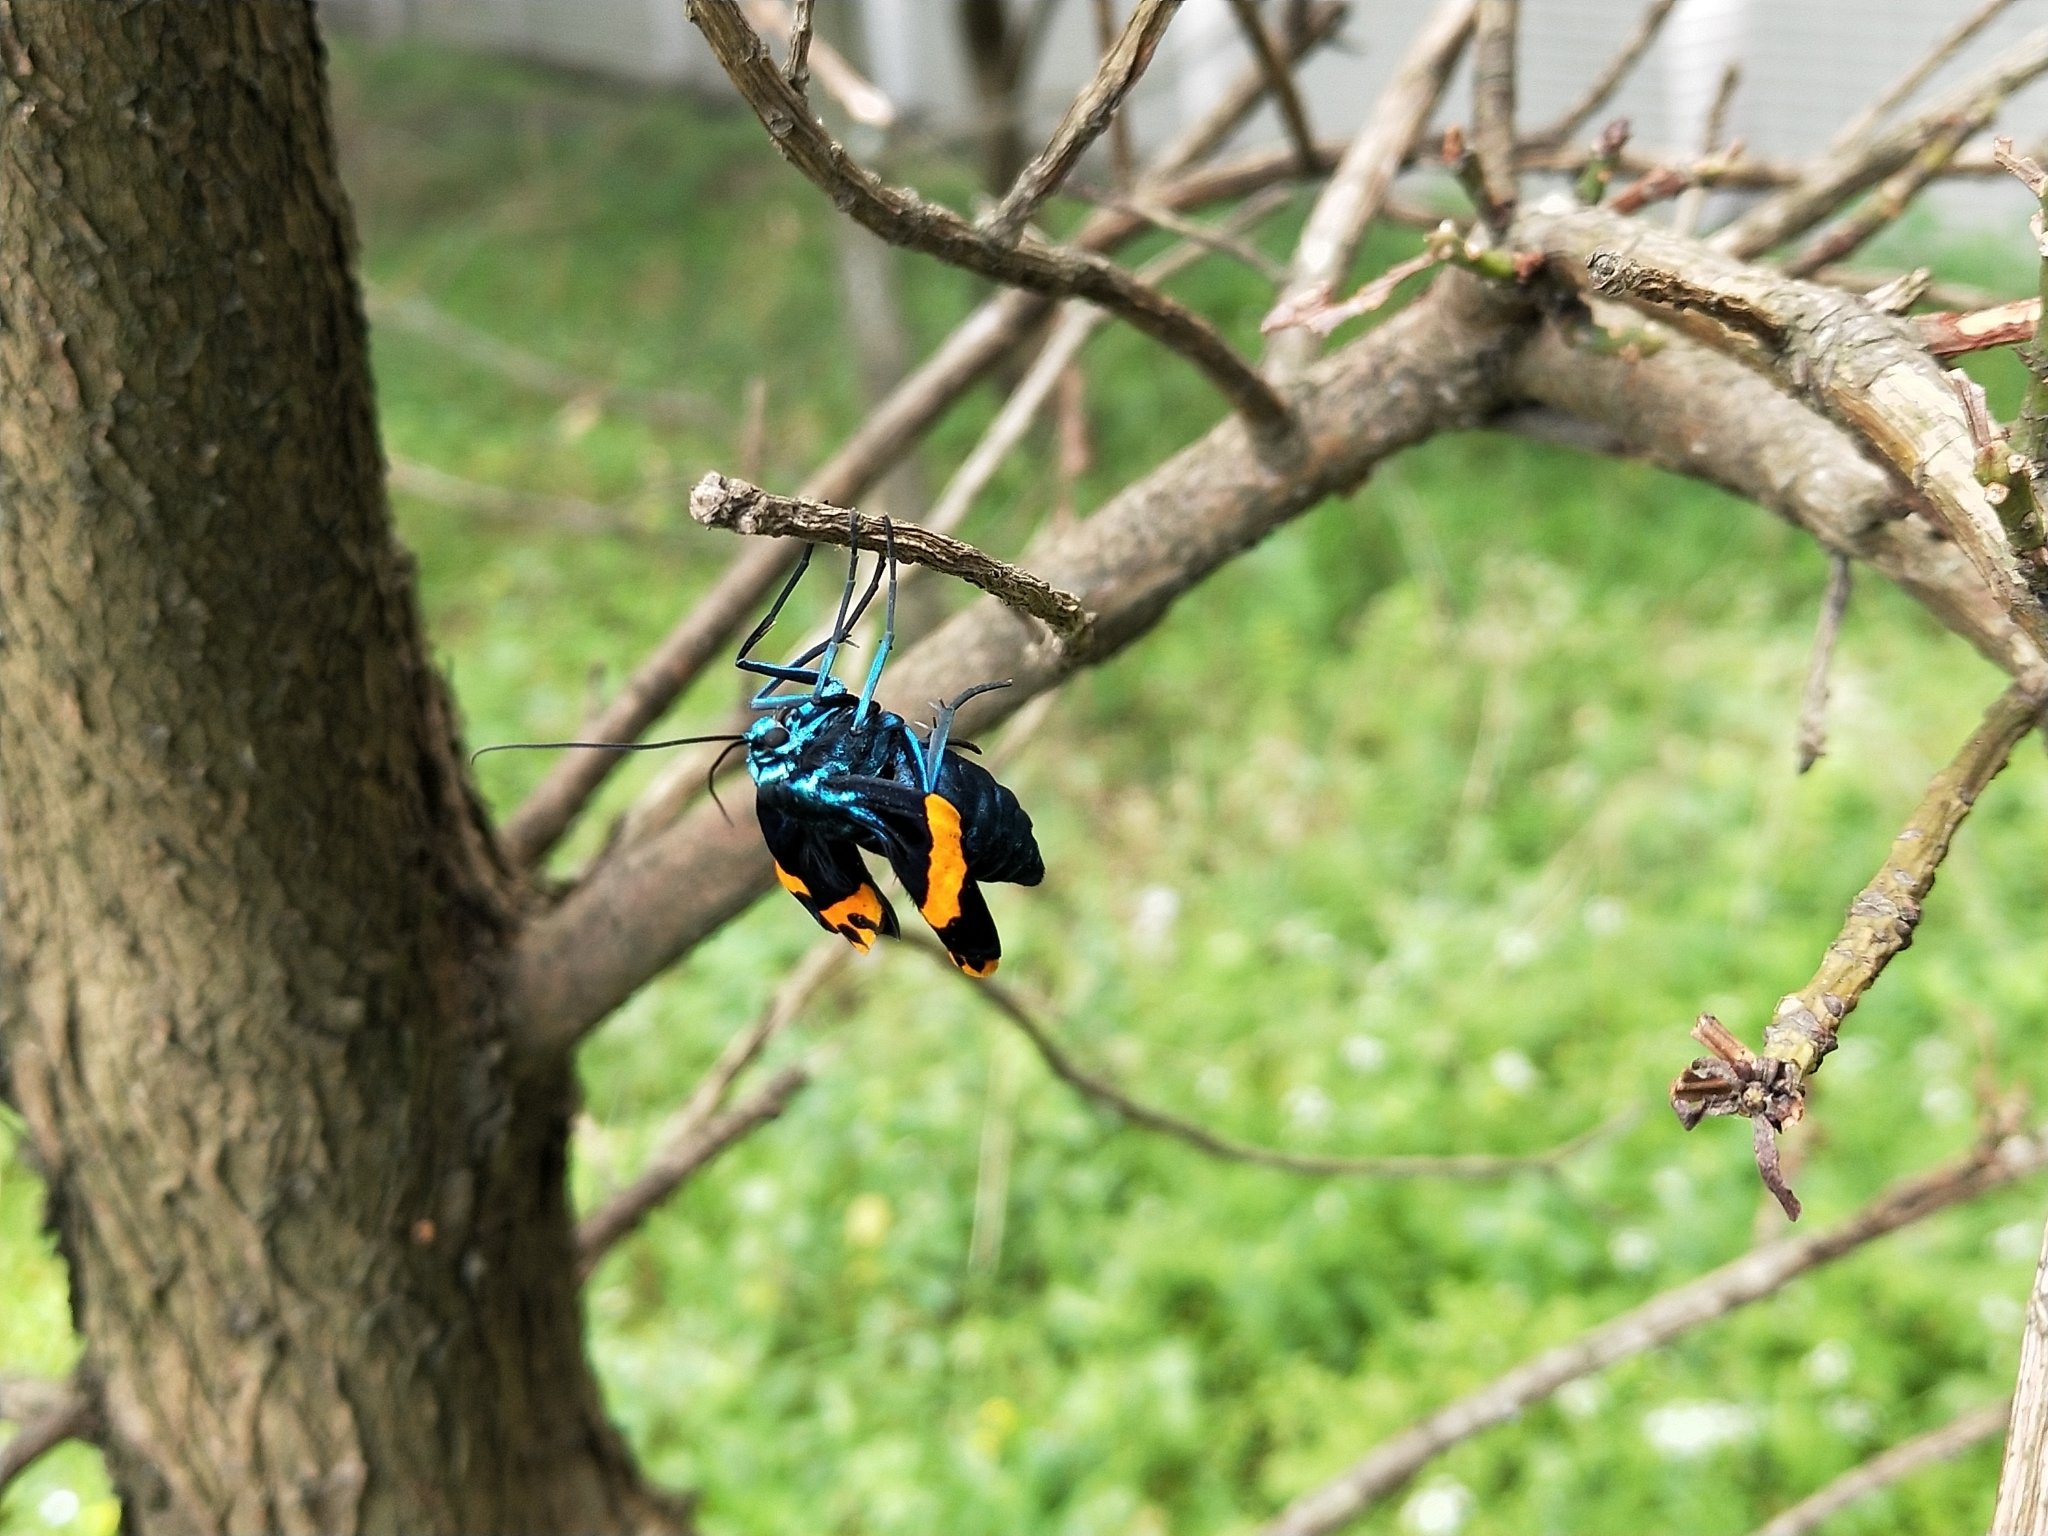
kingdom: Animalia
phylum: Arthropoda
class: Insecta
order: Lepidoptera
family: Geometridae
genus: Milionia
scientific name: Milionia basalis
